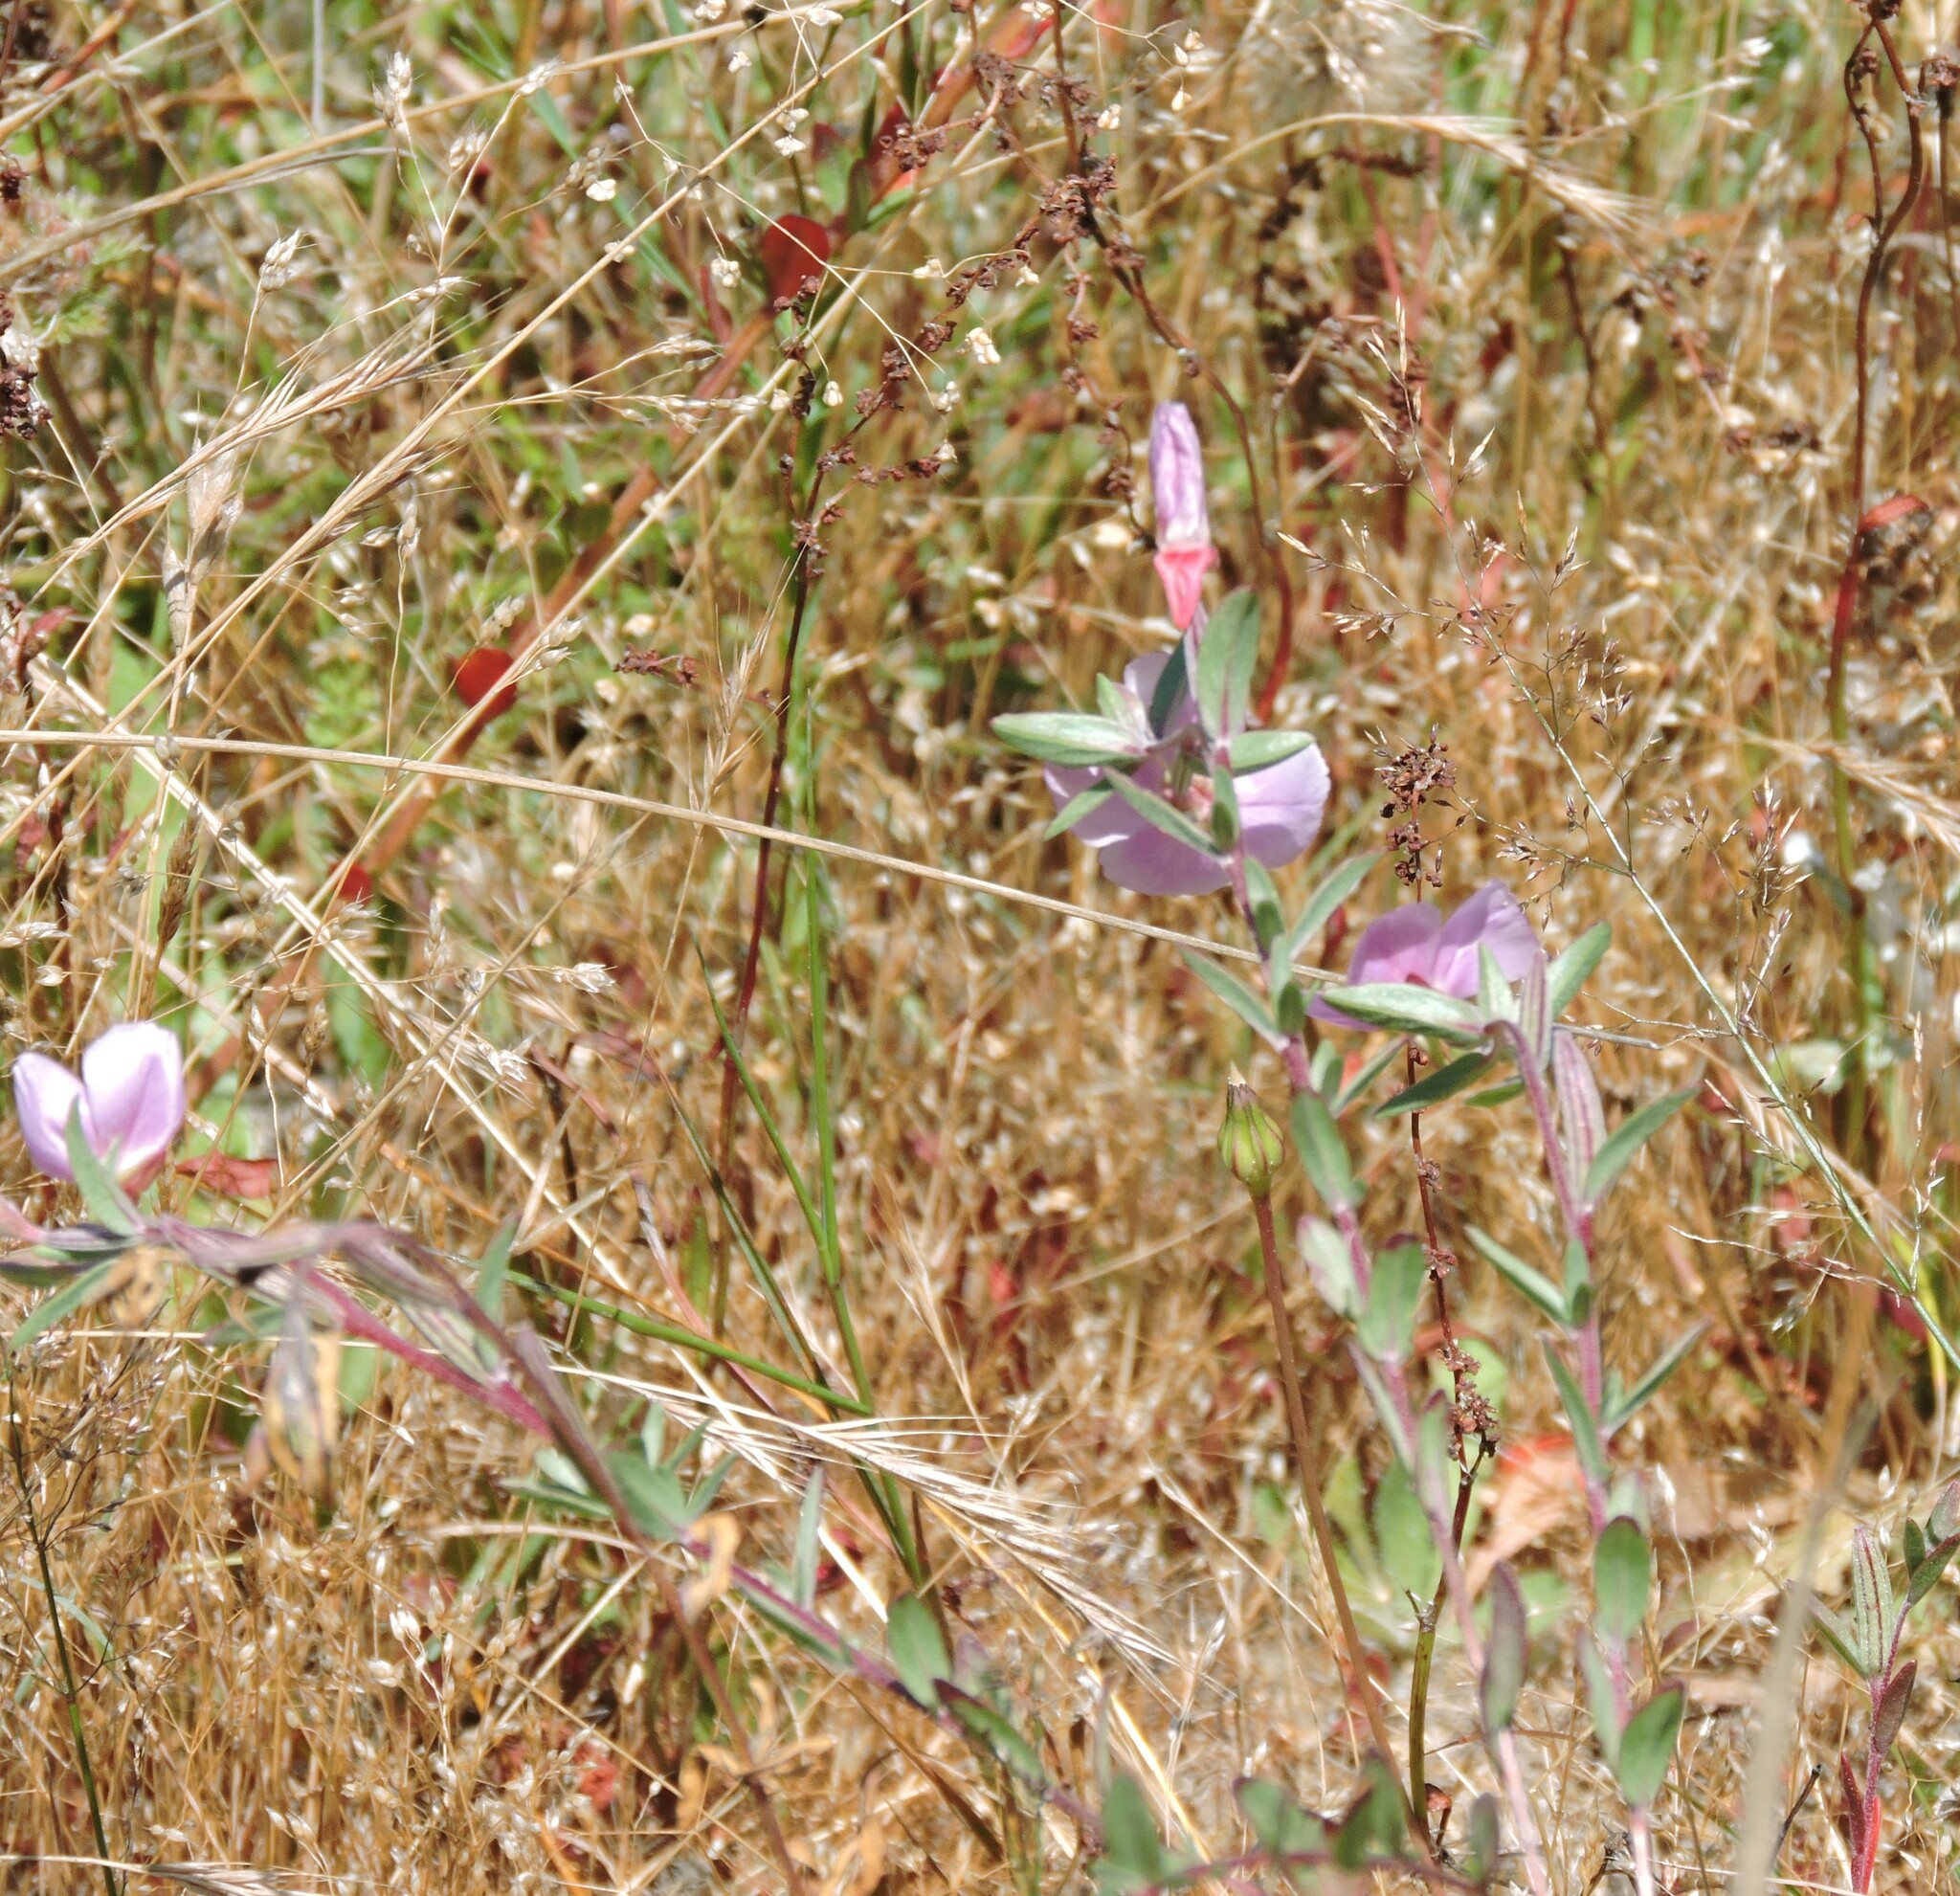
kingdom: Plantae
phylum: Tracheophyta
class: Magnoliopsida
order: Myrtales
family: Onagraceae
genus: Clarkia
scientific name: Clarkia davyi
